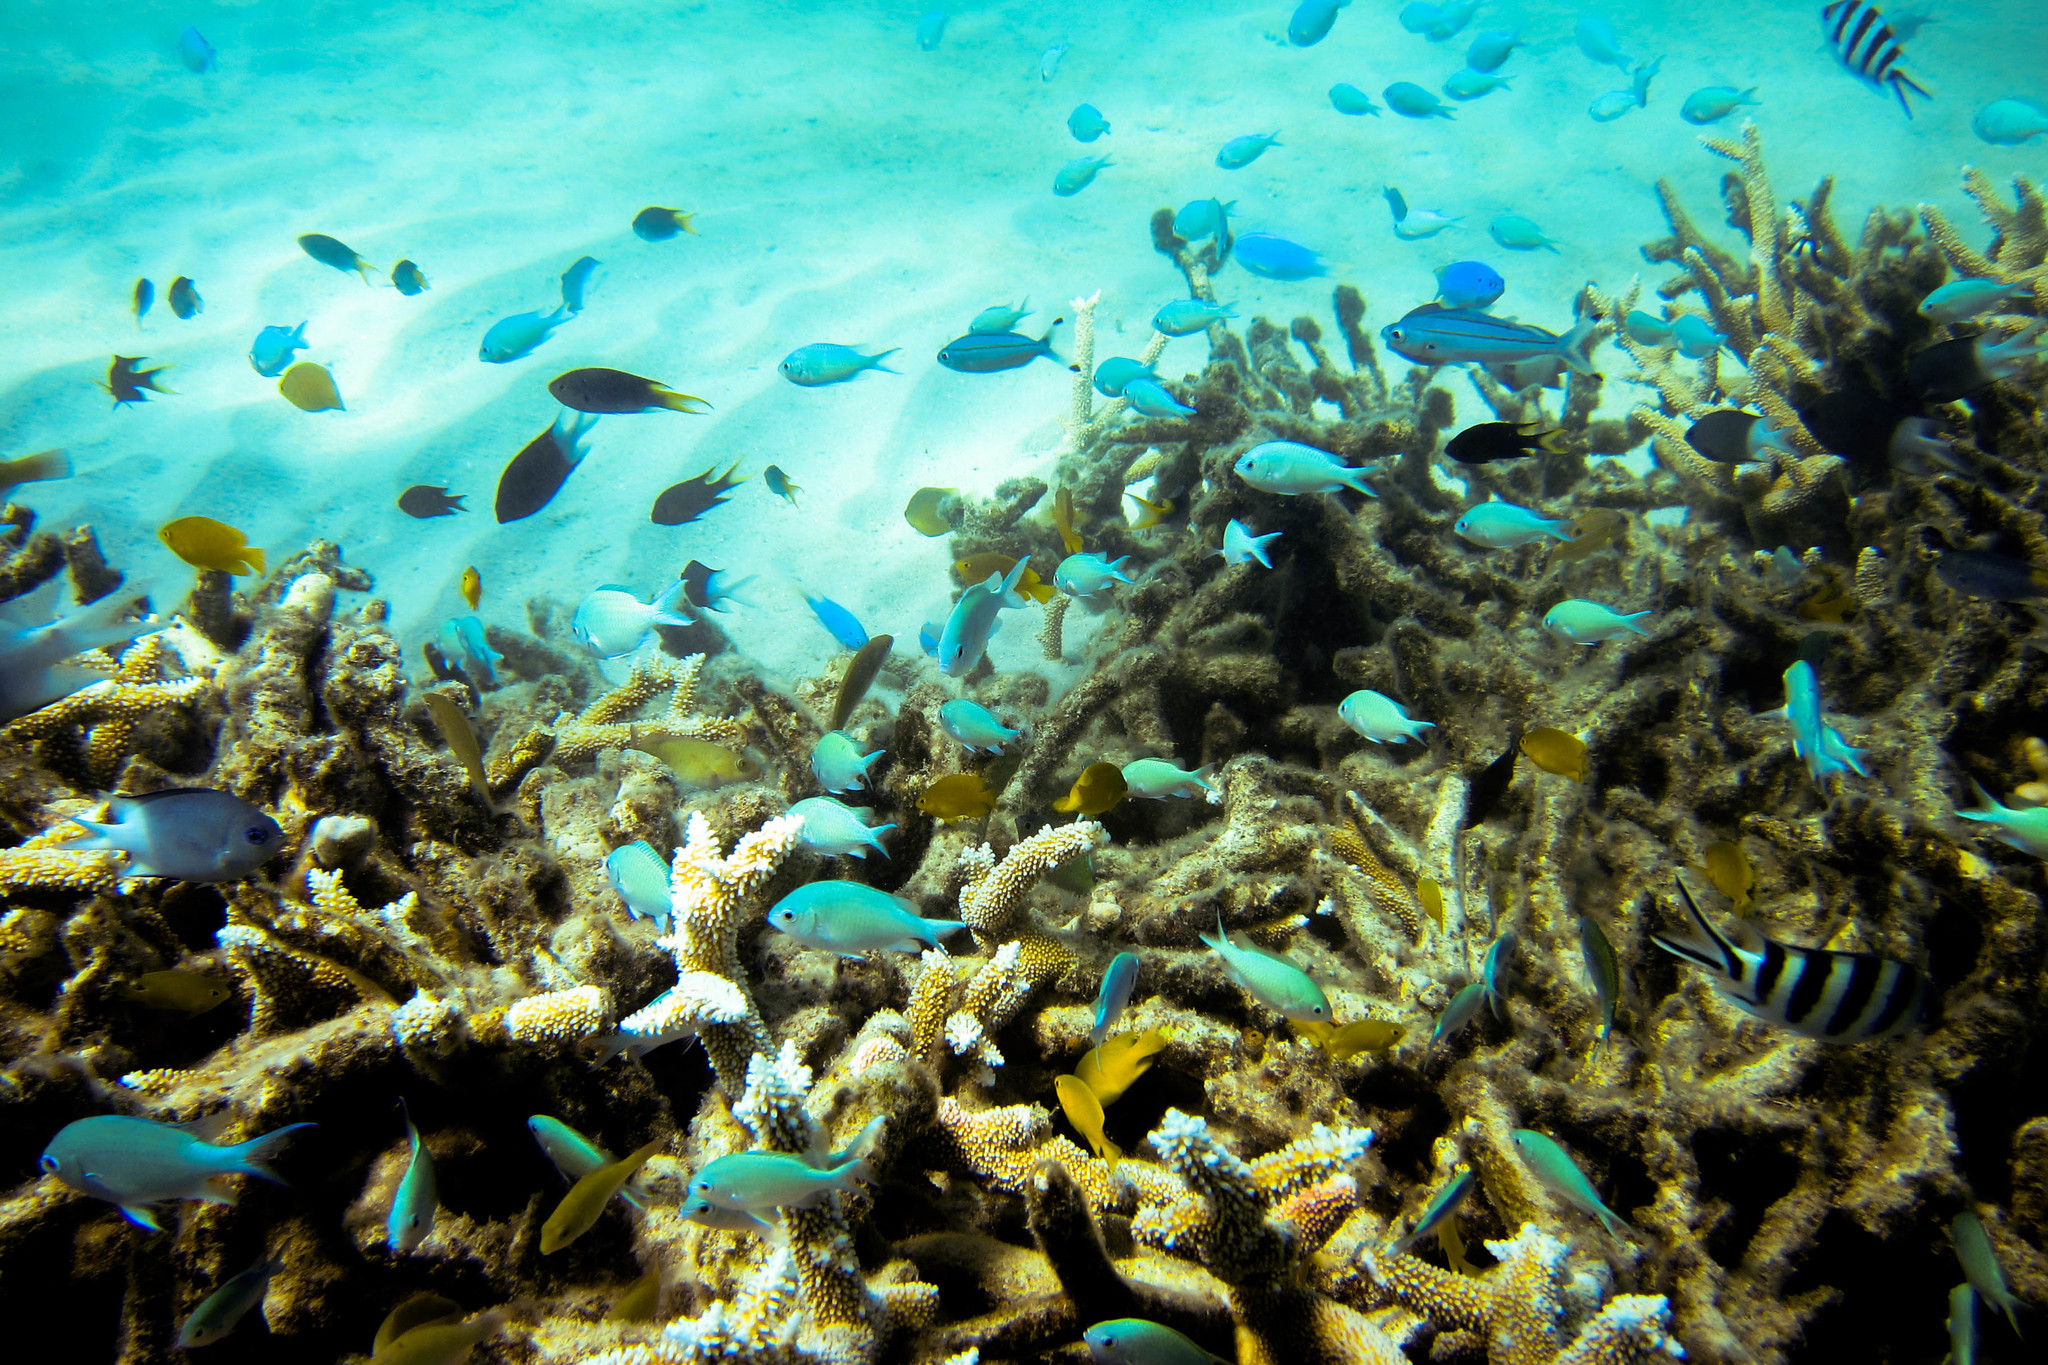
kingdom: Animalia
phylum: Chordata
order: Perciformes
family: Pomacentridae
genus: Chromis
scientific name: Chromis viridis
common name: Blue-green chromis
